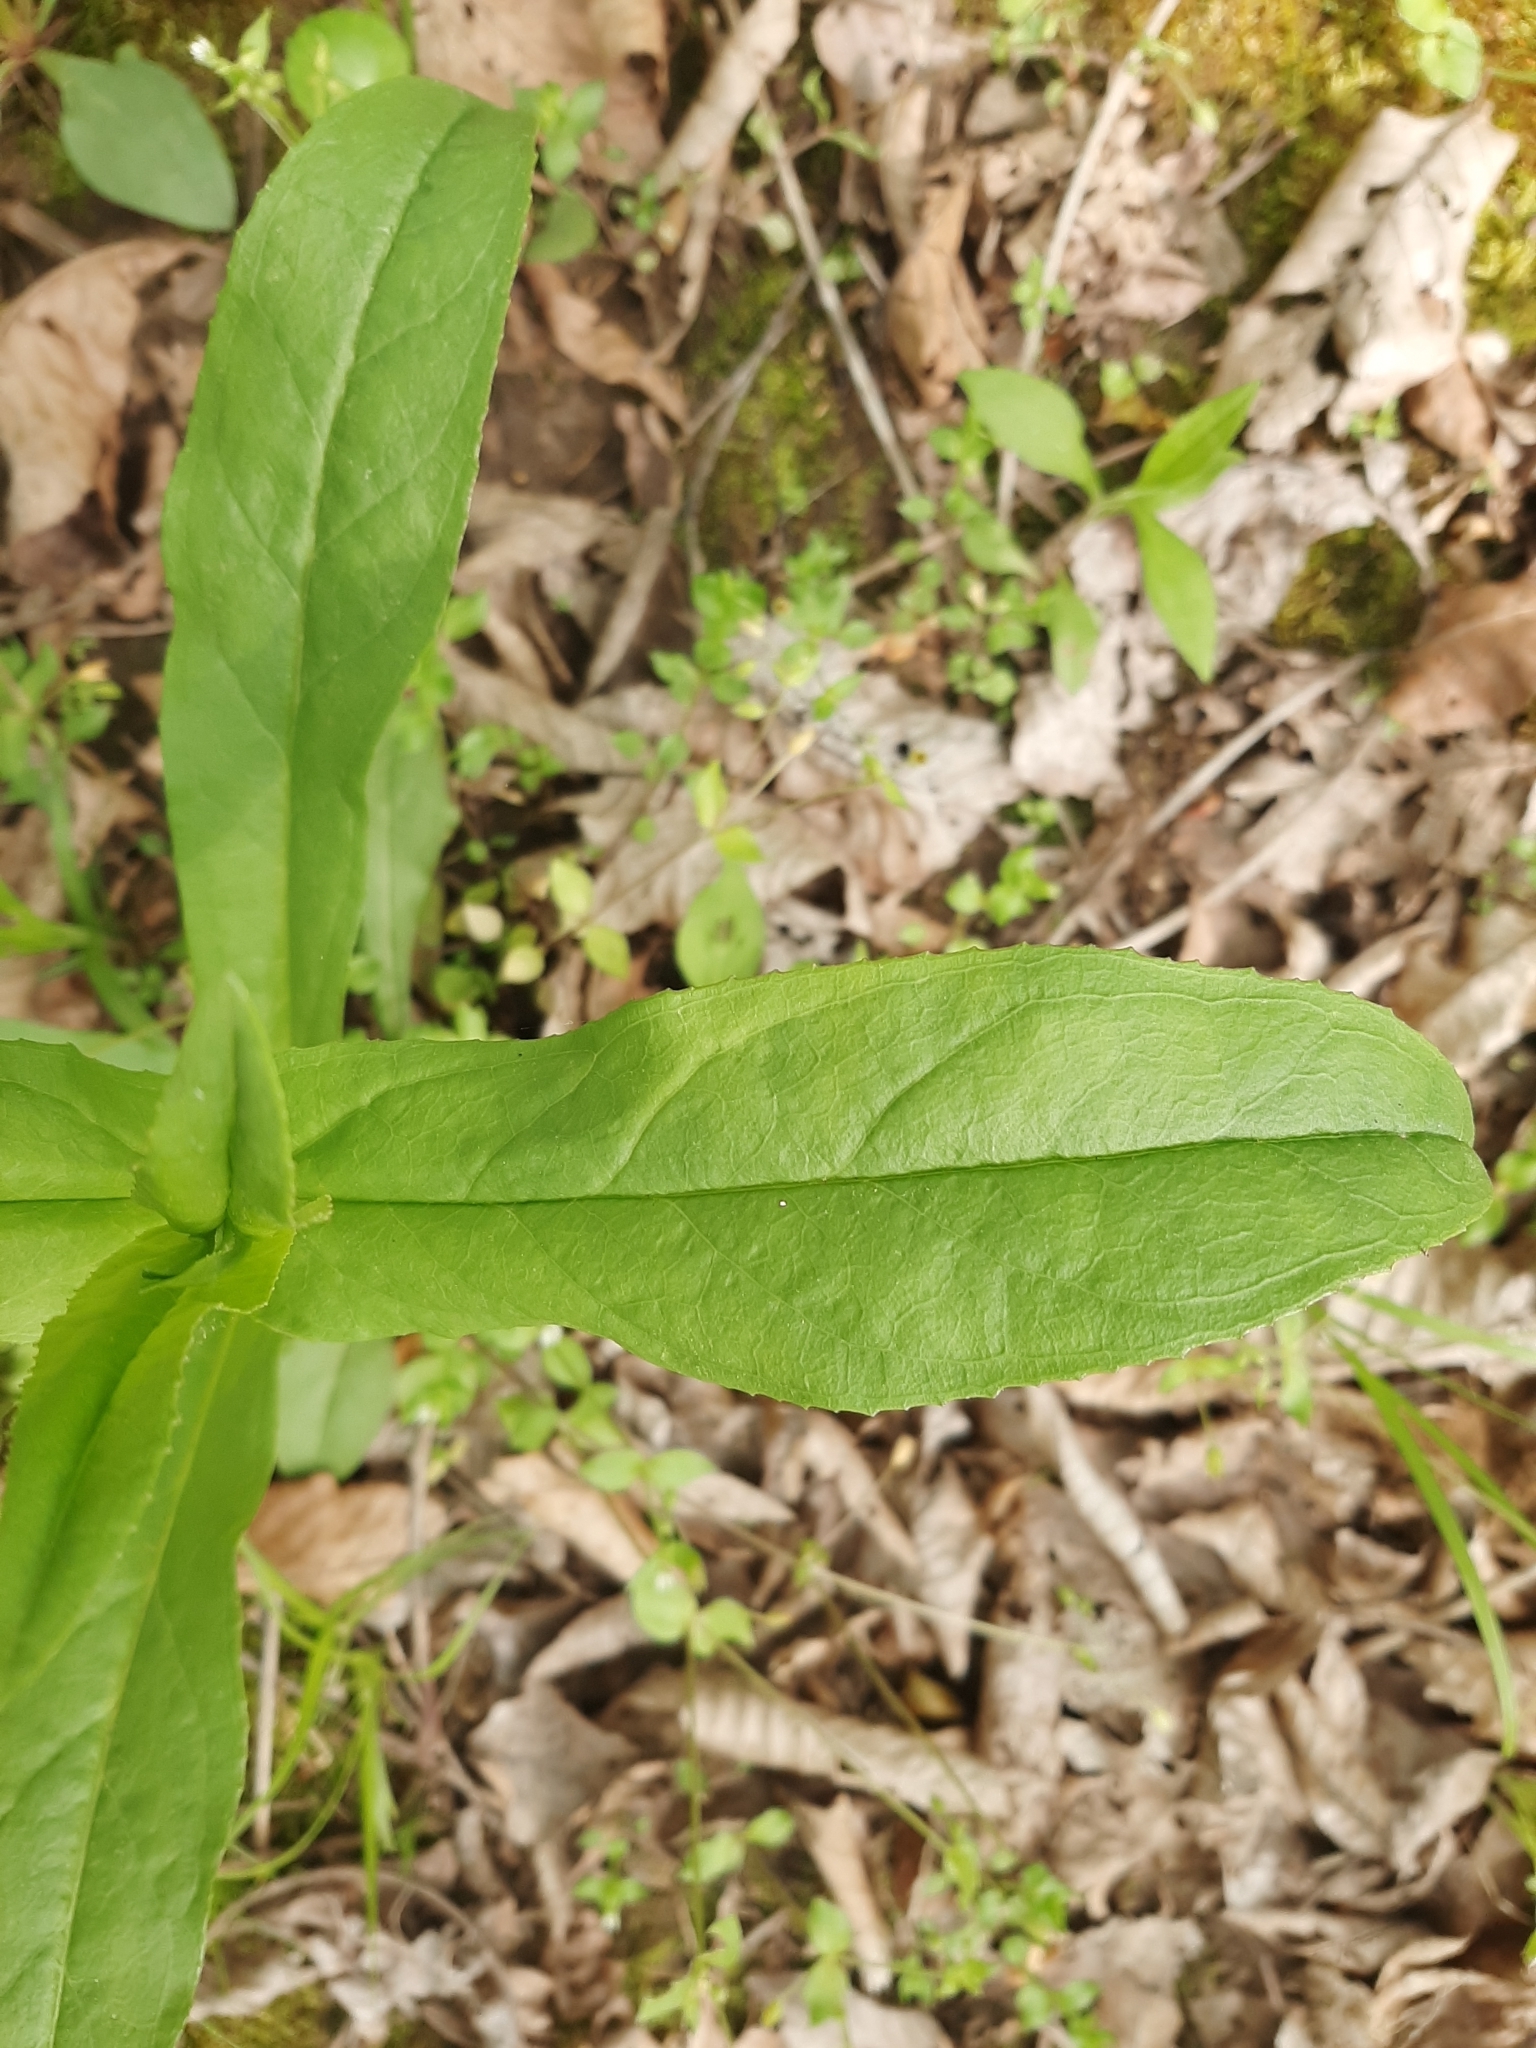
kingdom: Plantae
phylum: Tracheophyta
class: Magnoliopsida
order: Lamiales
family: Plantaginaceae
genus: Penstemon
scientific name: Penstemon digitalis
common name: Foxglove beardtongue
